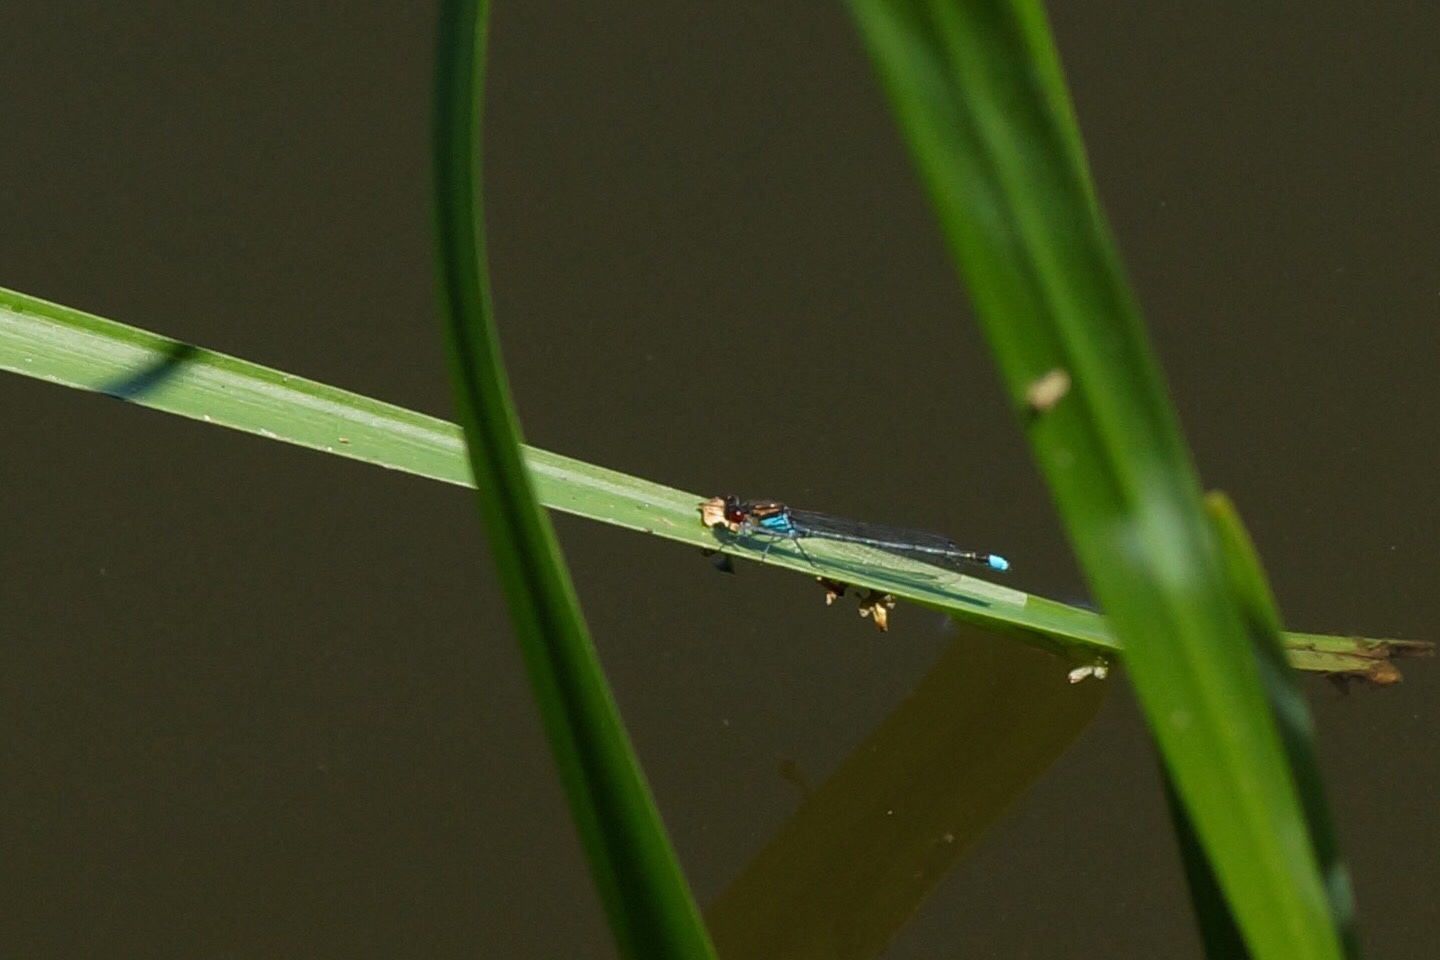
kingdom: Animalia
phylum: Arthropoda
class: Insecta
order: Odonata
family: Coenagrionidae
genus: Erythromma
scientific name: Erythromma najas
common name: Red-eyed damselfly
